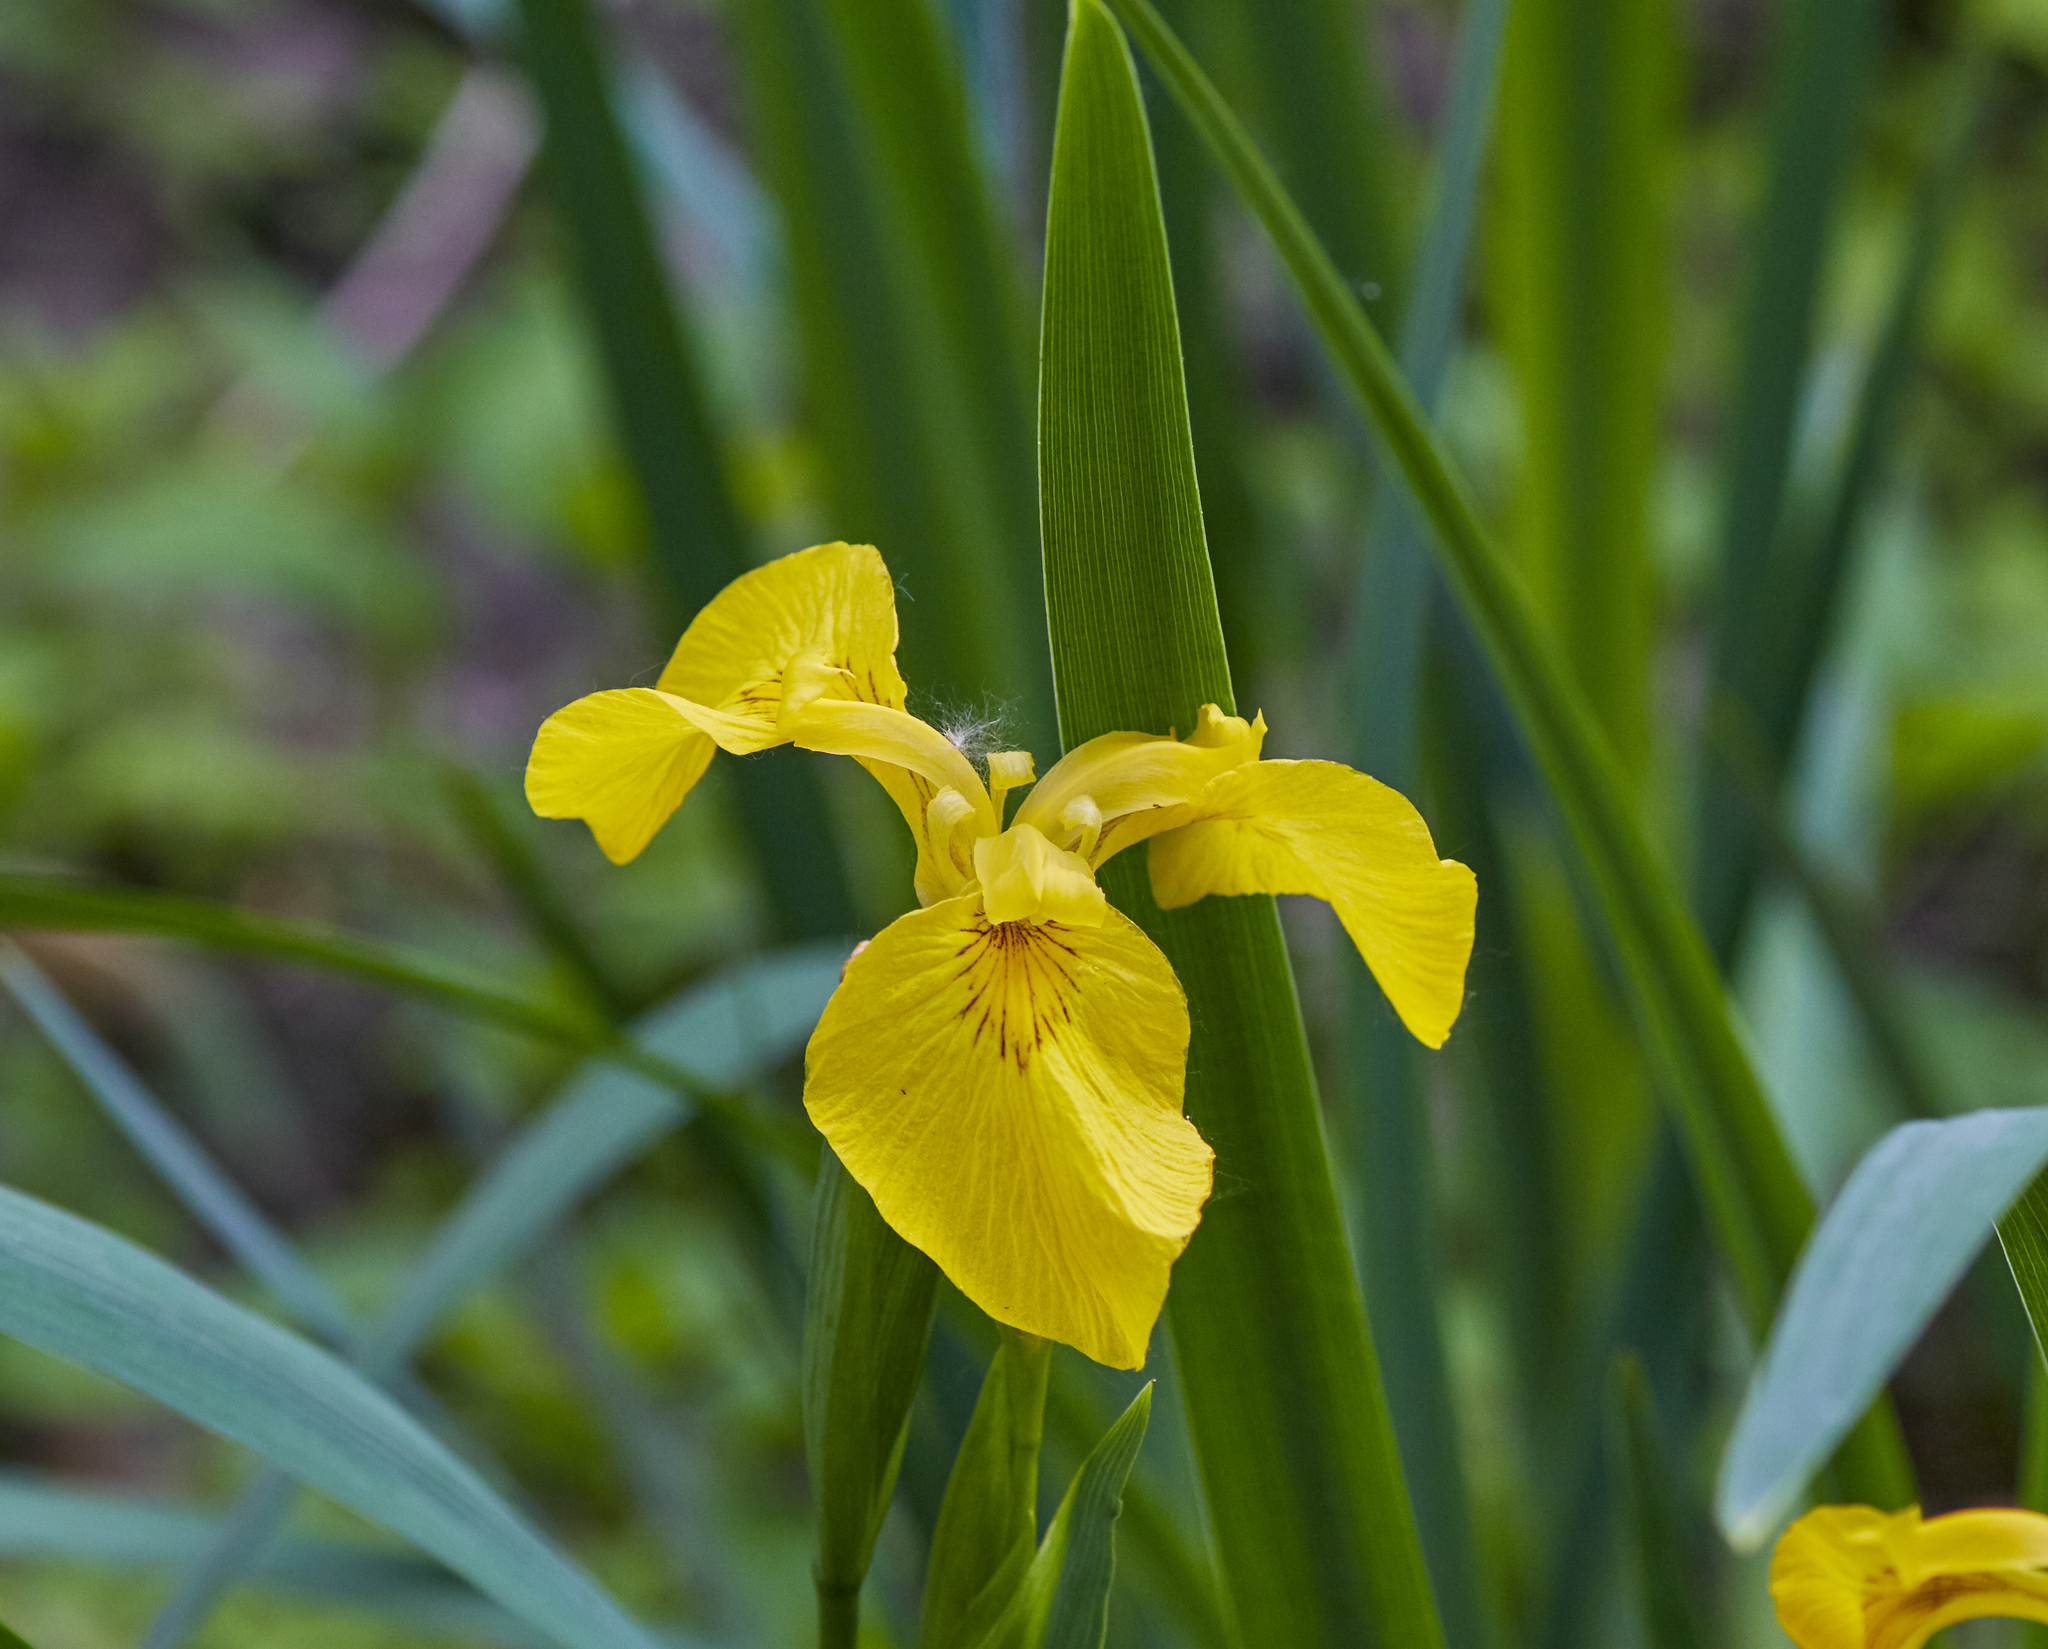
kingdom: Plantae
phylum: Tracheophyta
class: Liliopsida
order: Asparagales
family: Iridaceae
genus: Iris
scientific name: Iris pseudacorus
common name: Yellow flag
